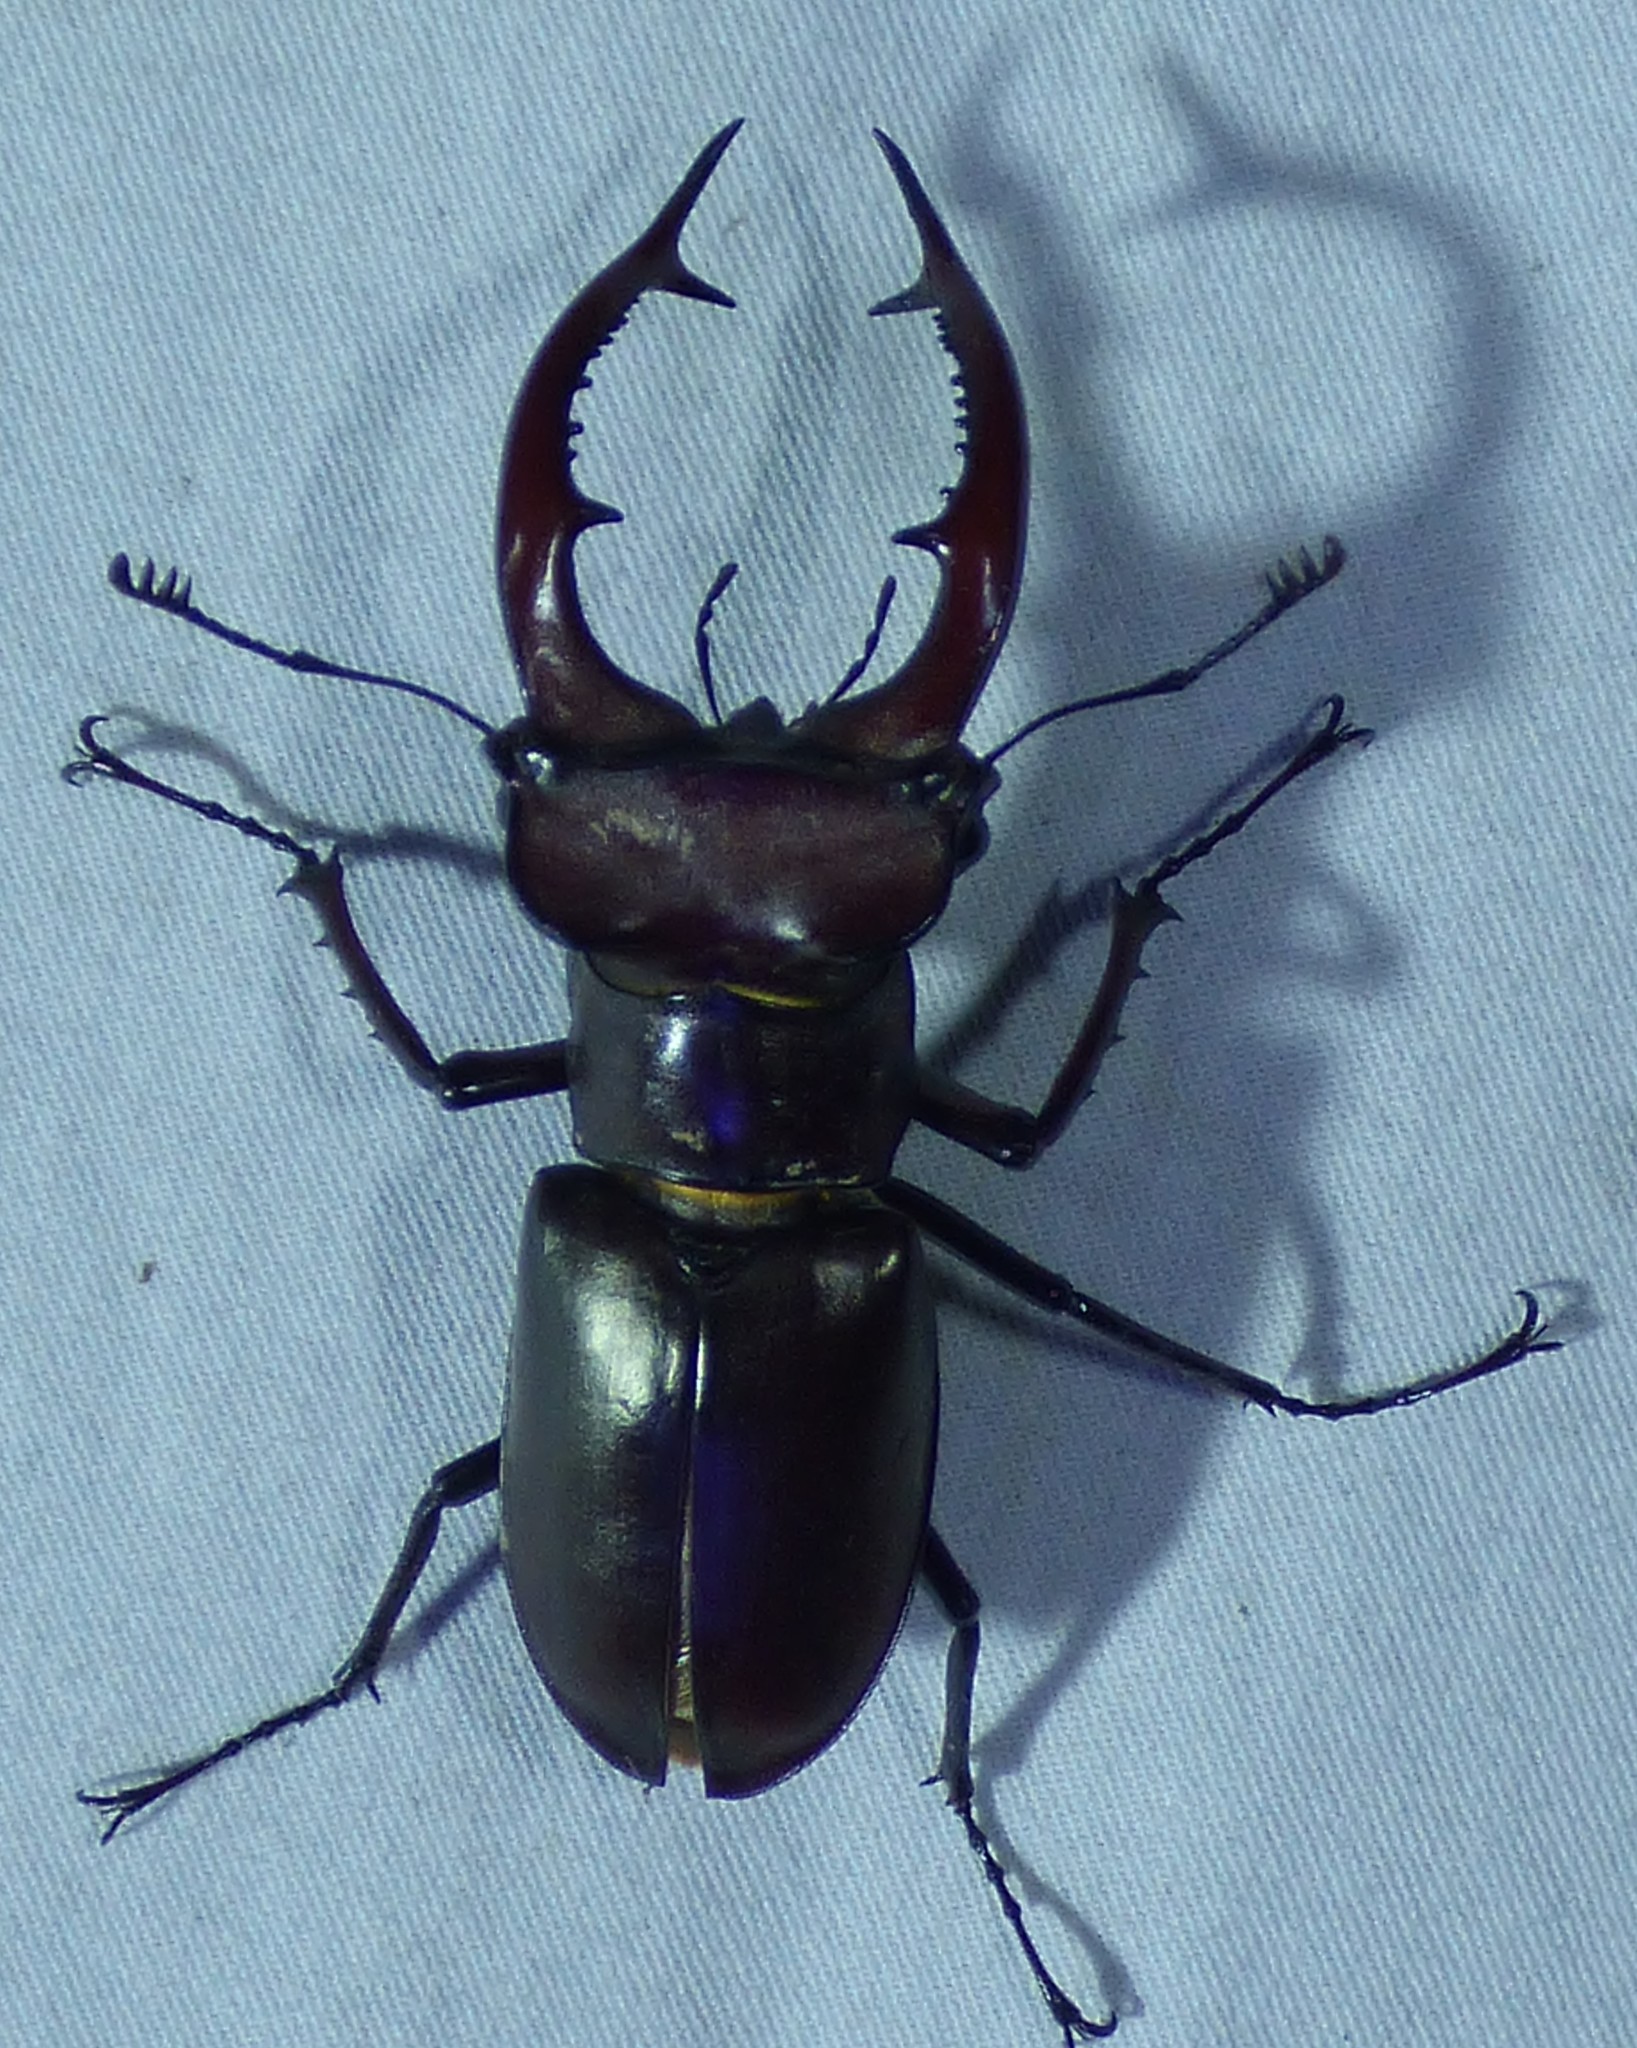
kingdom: Animalia
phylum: Arthropoda
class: Insecta
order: Coleoptera
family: Lucanidae
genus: Lucanus
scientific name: Lucanus elaphus
